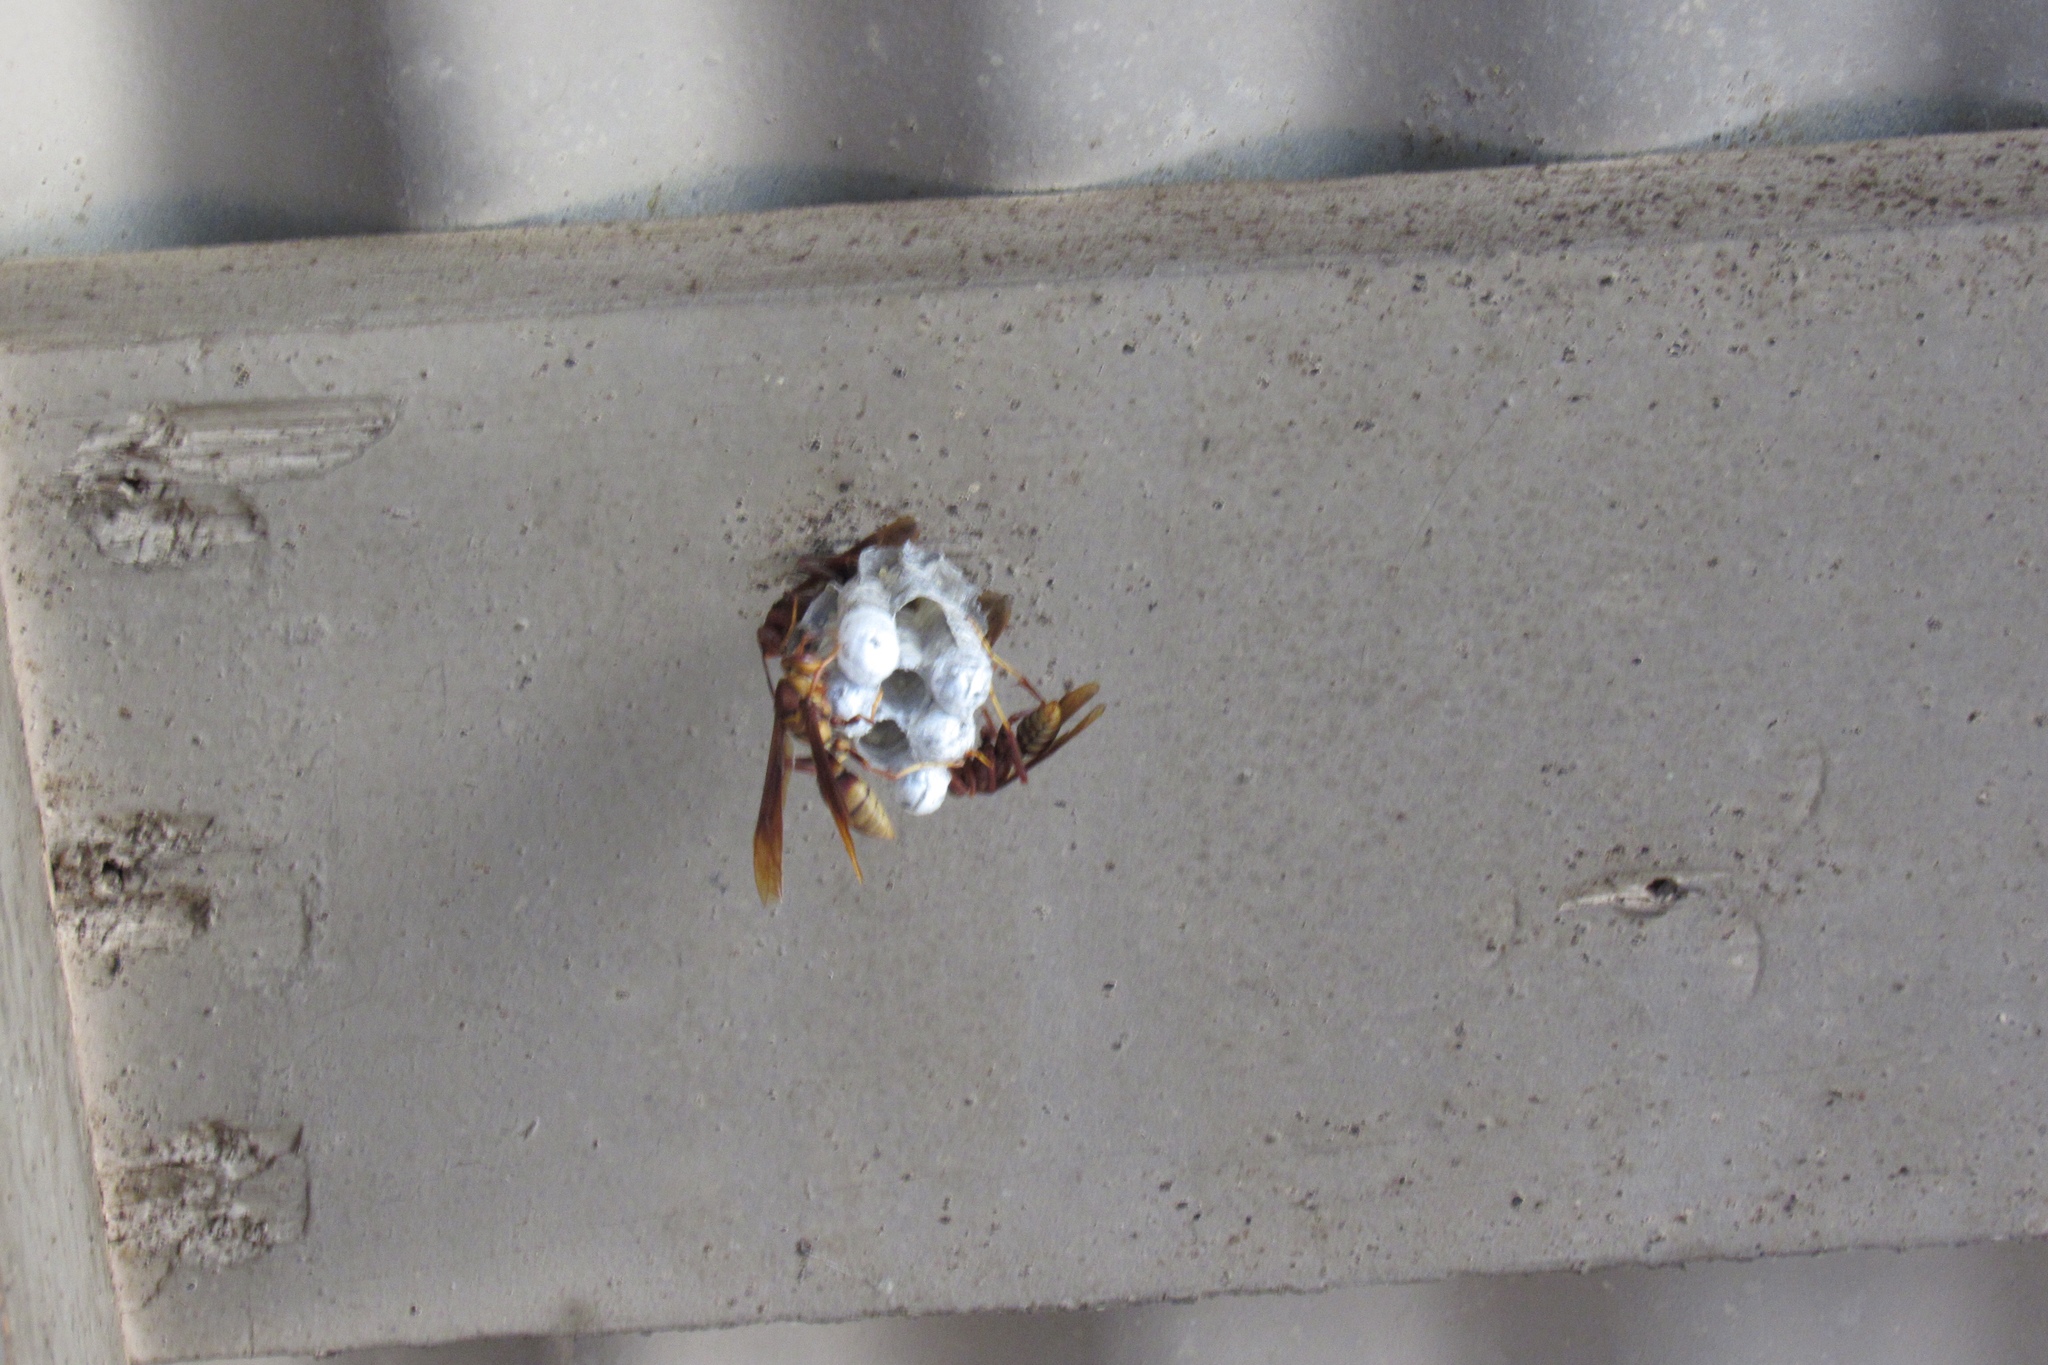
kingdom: Animalia
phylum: Arthropoda
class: Insecta
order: Hymenoptera
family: Eumenidae
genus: Polistes
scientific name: Polistes major
